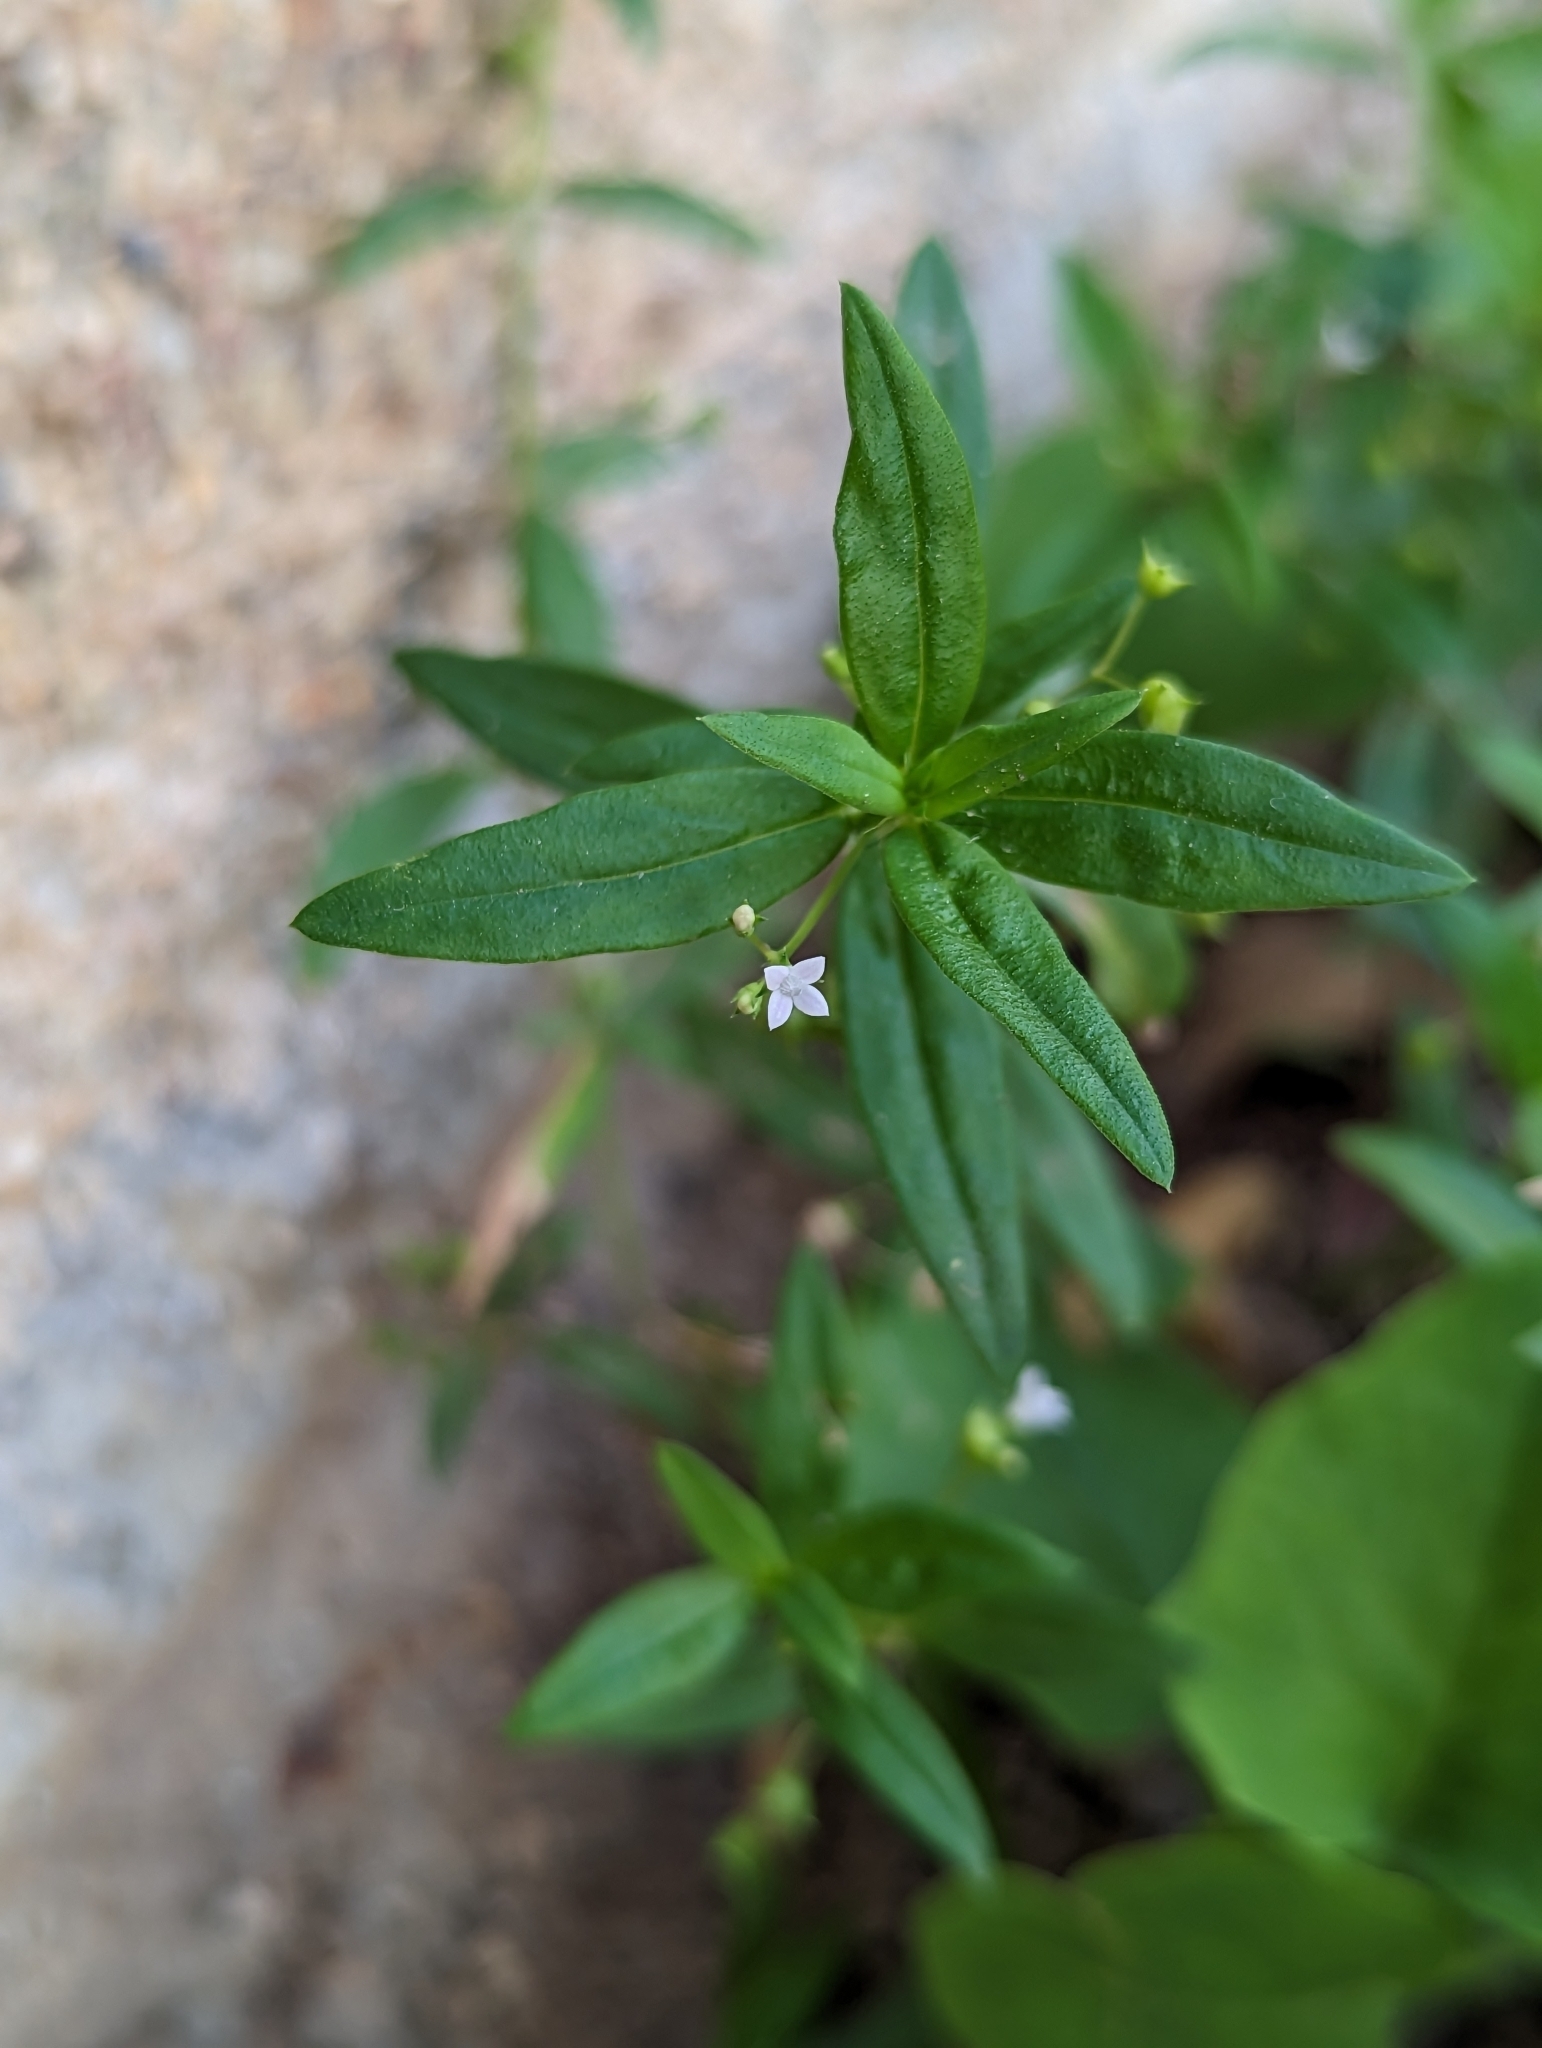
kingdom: Plantae
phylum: Tracheophyta
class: Magnoliopsida
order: Gentianales
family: Rubiaceae
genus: Oldenlandia
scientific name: Oldenlandia corymbosa
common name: Flat-top mille graines
